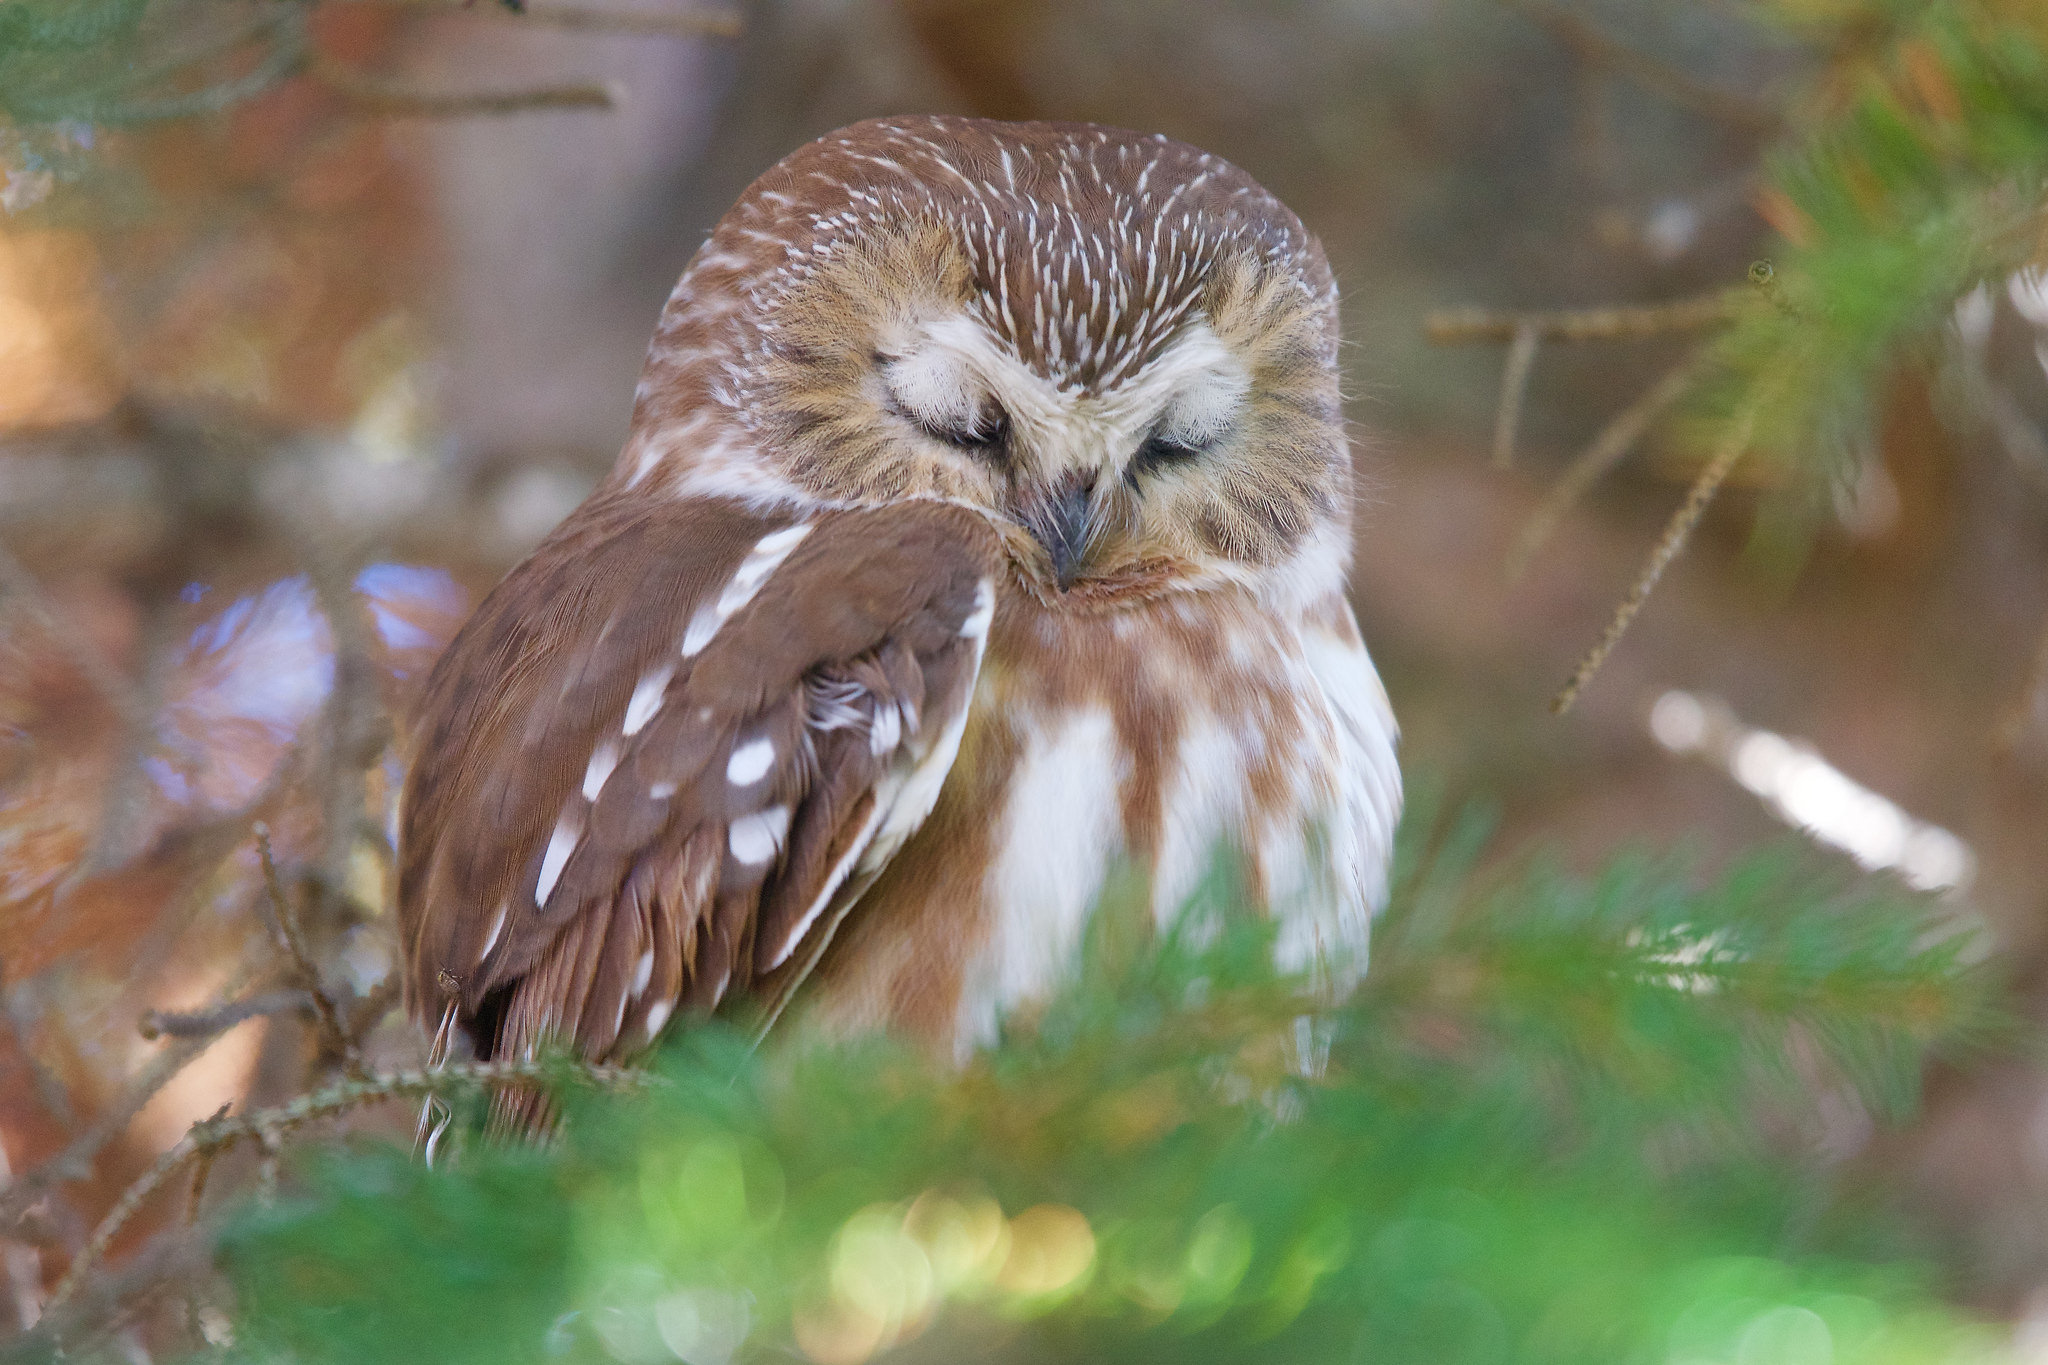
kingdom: Animalia
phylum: Chordata
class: Aves
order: Strigiformes
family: Strigidae
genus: Aegolius
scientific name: Aegolius acadicus
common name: Northern saw-whet owl
